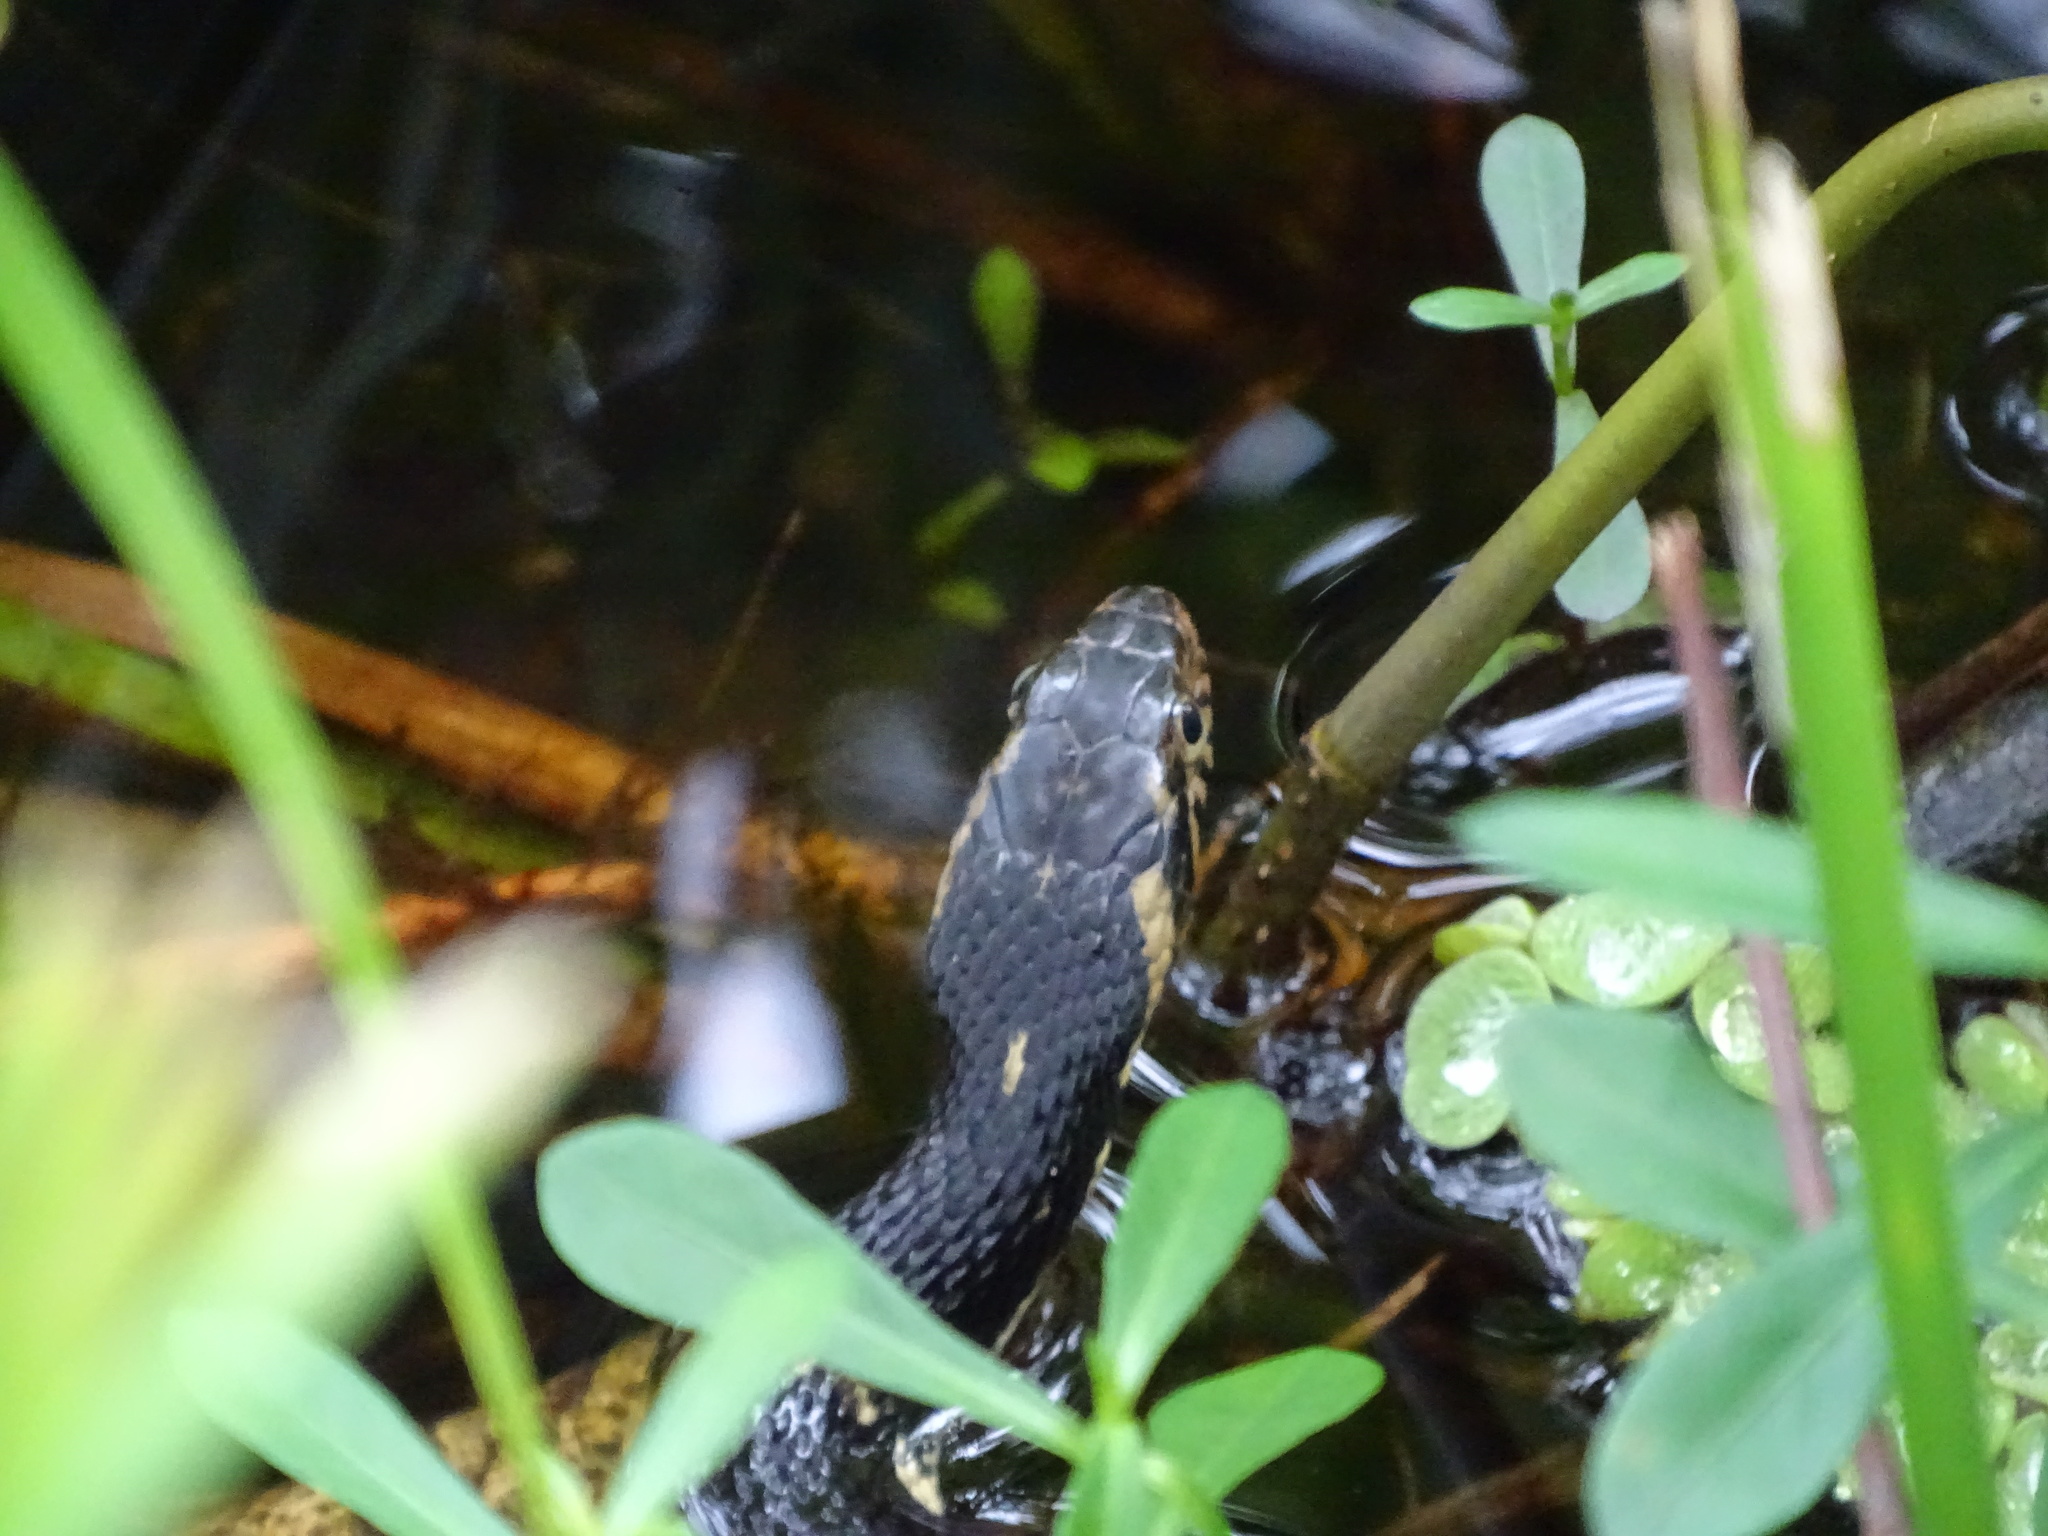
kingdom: Animalia
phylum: Chordata
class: Squamata
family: Colubridae
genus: Nerodia
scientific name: Nerodia fasciata
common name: Southern water snake
